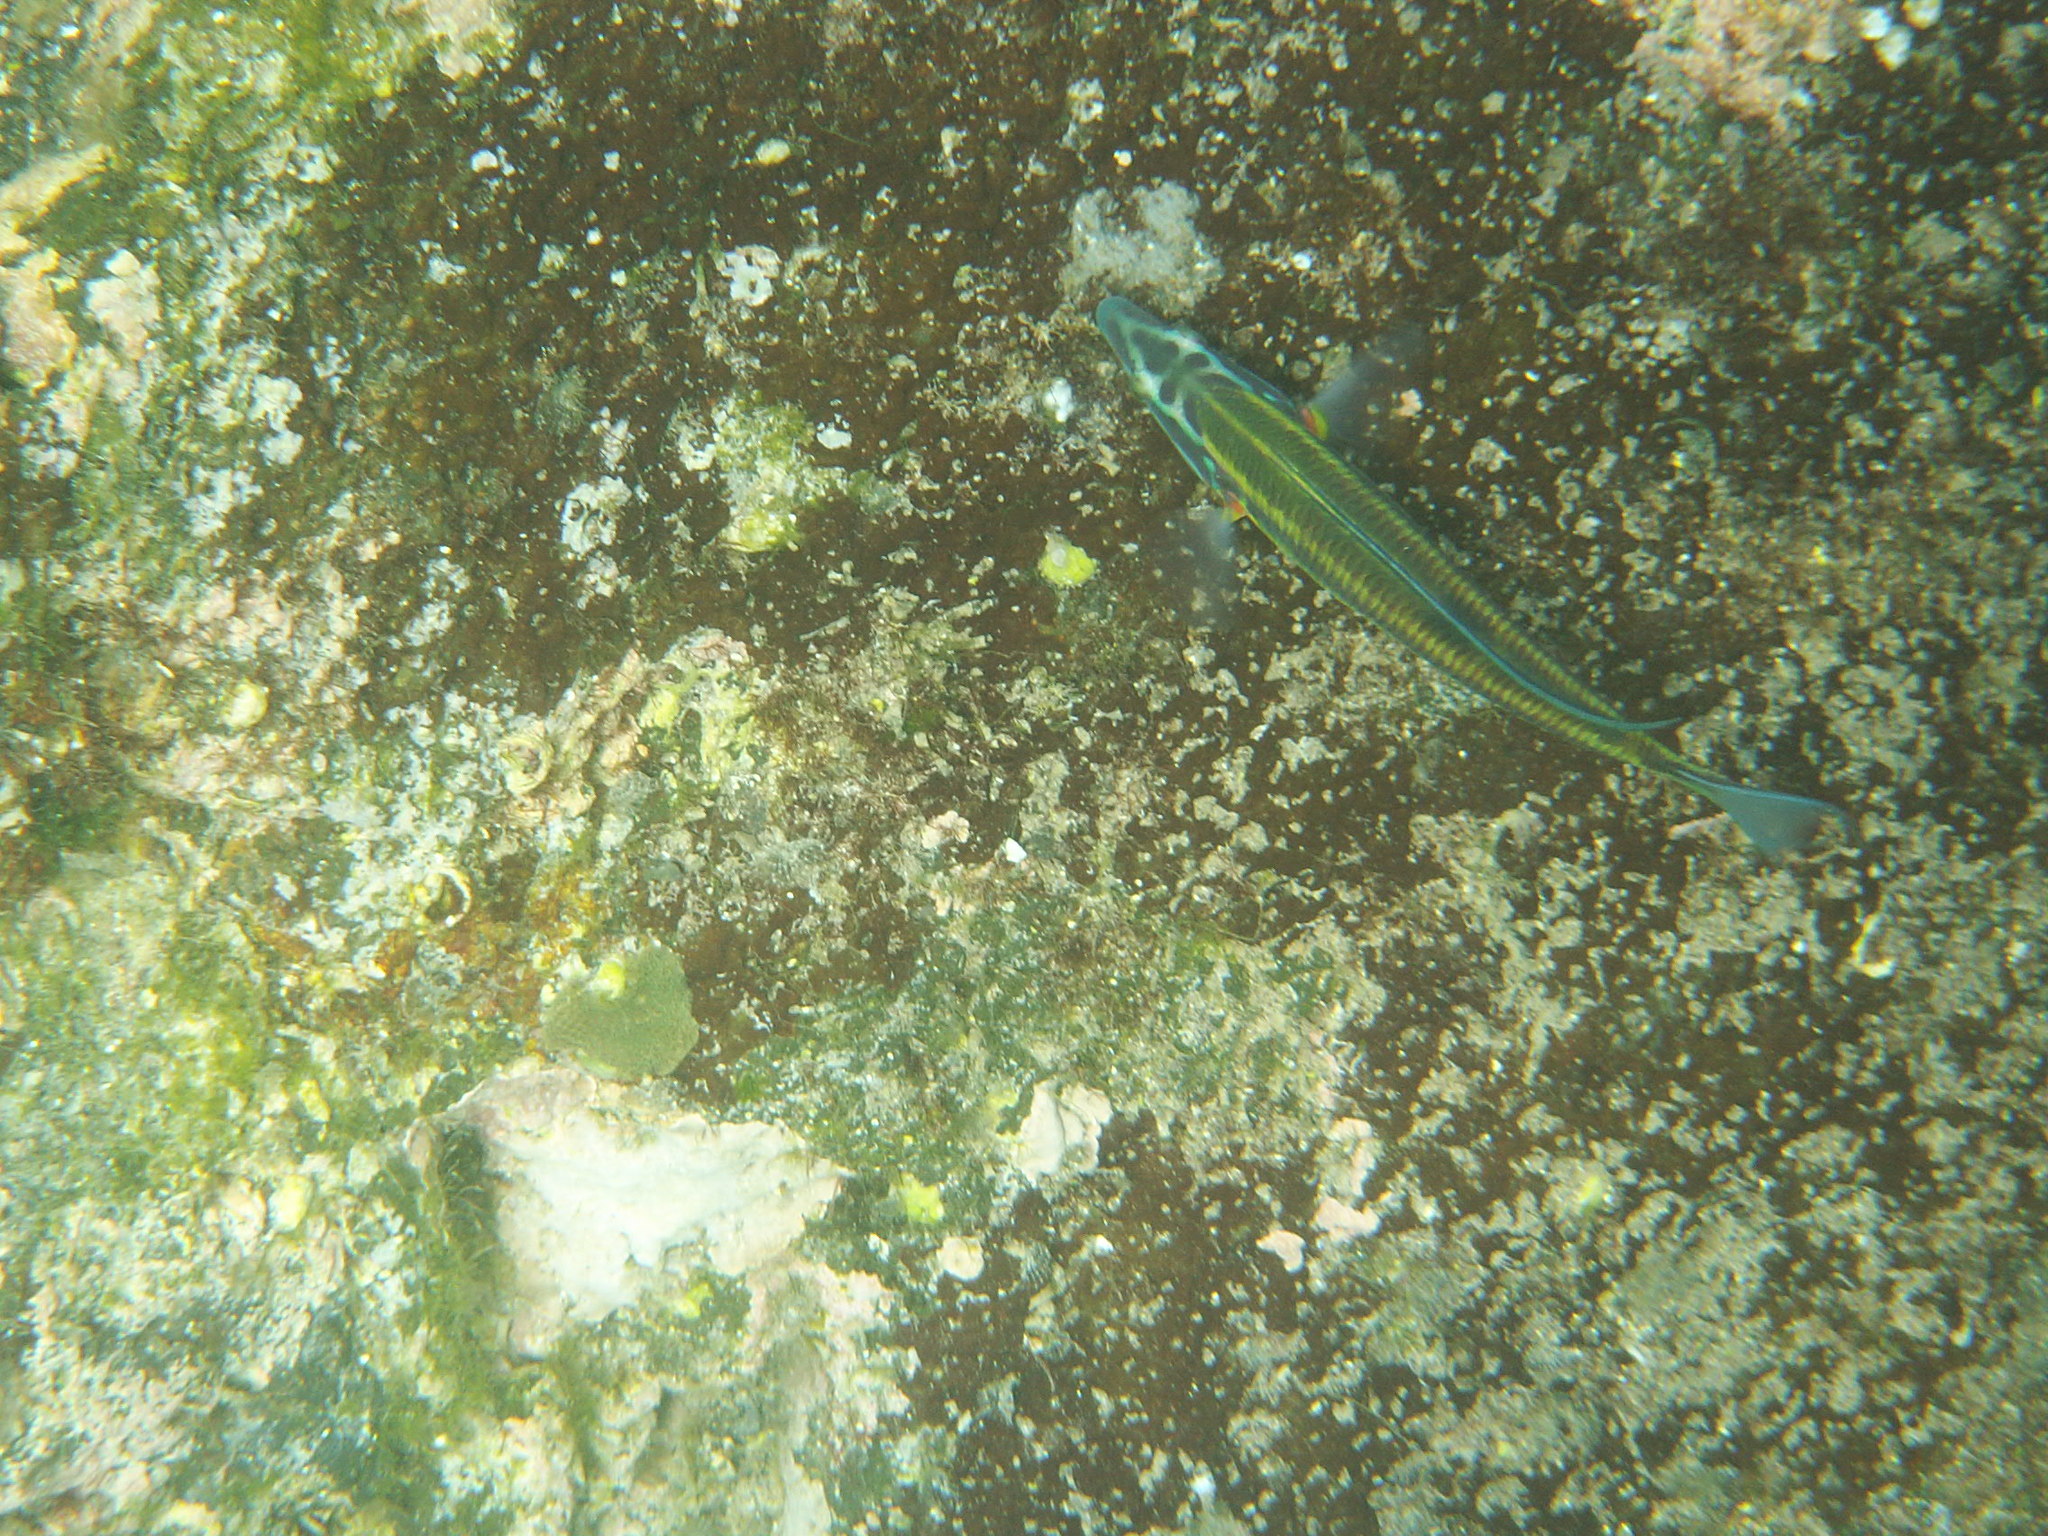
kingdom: Animalia
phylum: Chordata
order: Perciformes
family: Labridae
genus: Thalassoma
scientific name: Thalassoma pavo
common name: Ornate wrasse
